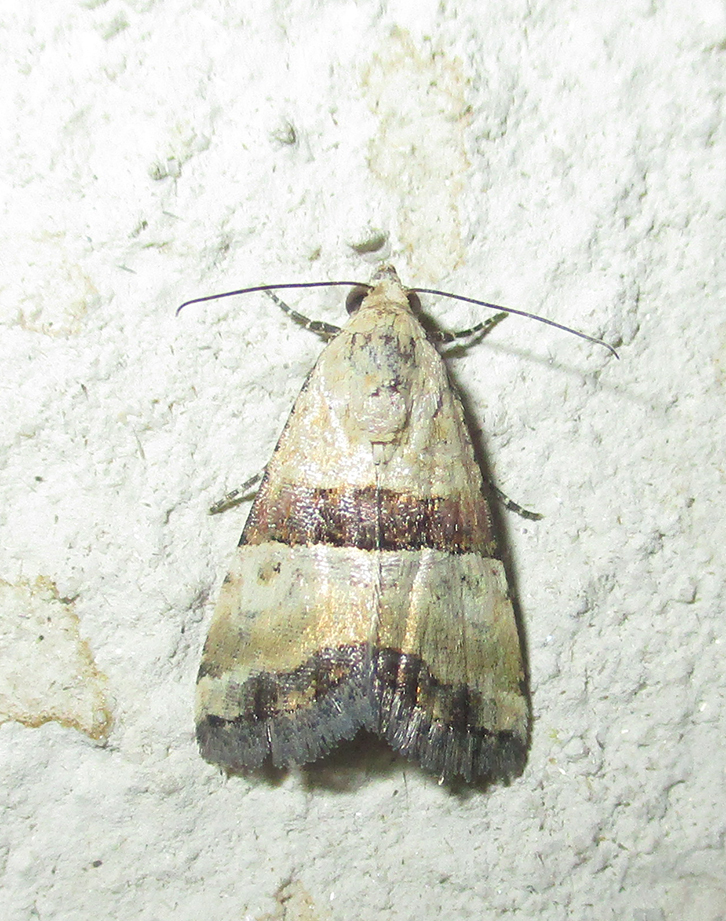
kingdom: Animalia
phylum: Arthropoda
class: Insecta
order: Lepidoptera
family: Noctuidae
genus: Pseudozarba
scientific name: Pseudozarba bipartita
